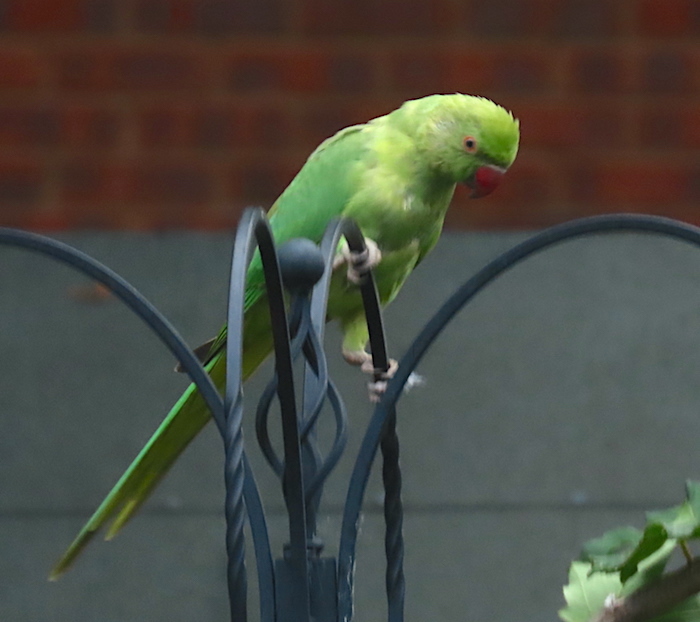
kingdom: Animalia
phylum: Chordata
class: Aves
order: Psittaciformes
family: Psittacidae
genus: Psittacula
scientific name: Psittacula krameri
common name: Rose-ringed parakeet
